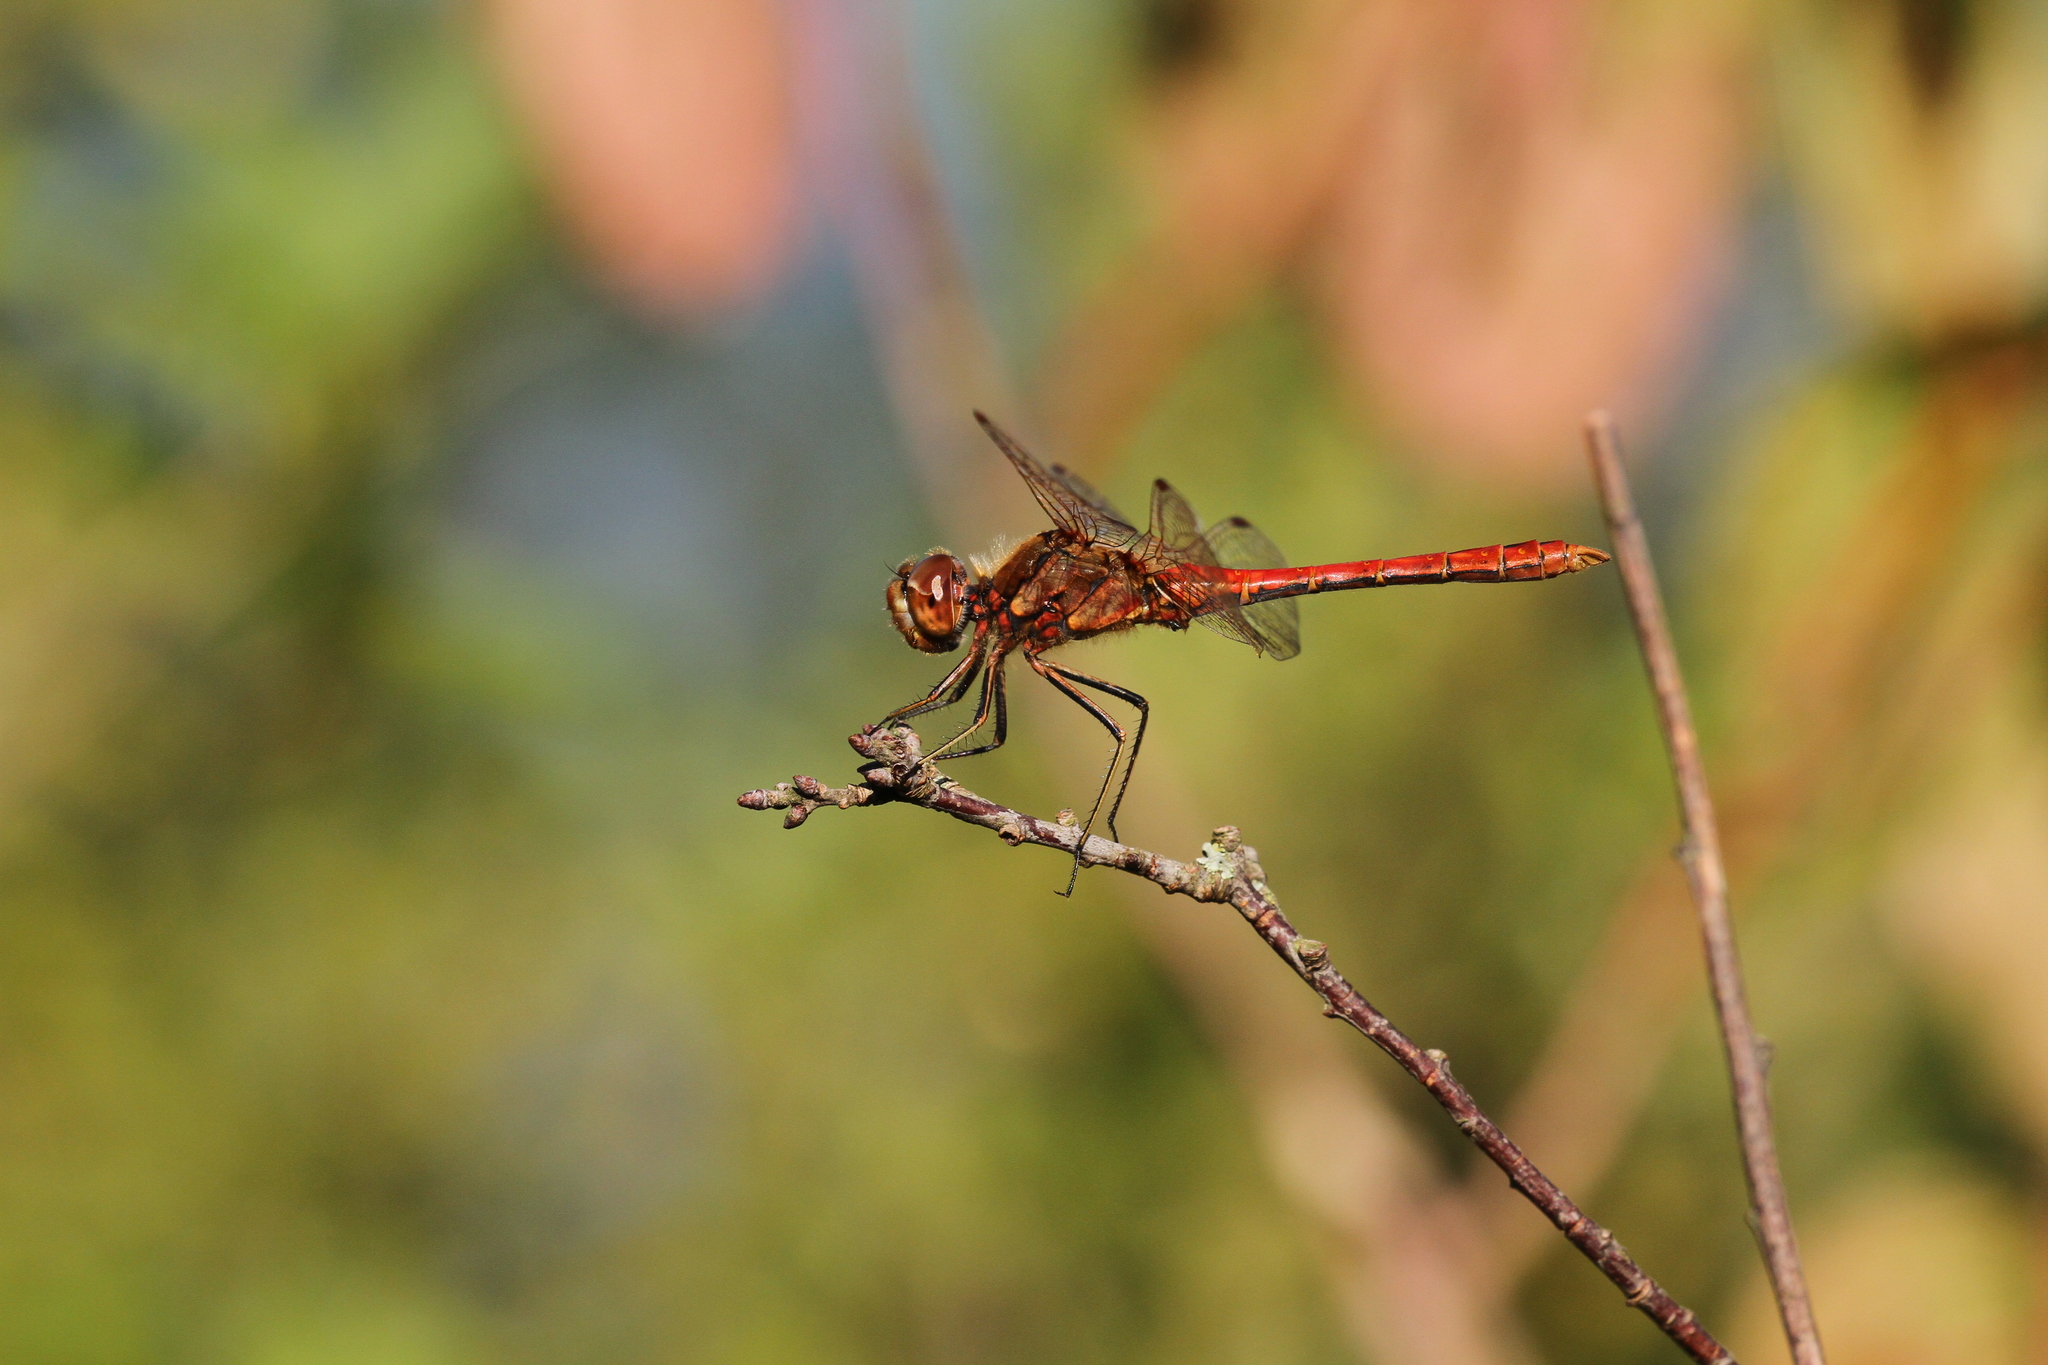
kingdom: Animalia
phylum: Arthropoda
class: Insecta
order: Odonata
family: Libellulidae
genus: Sympetrum
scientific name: Sympetrum vulgatum
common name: Vagrant darter
